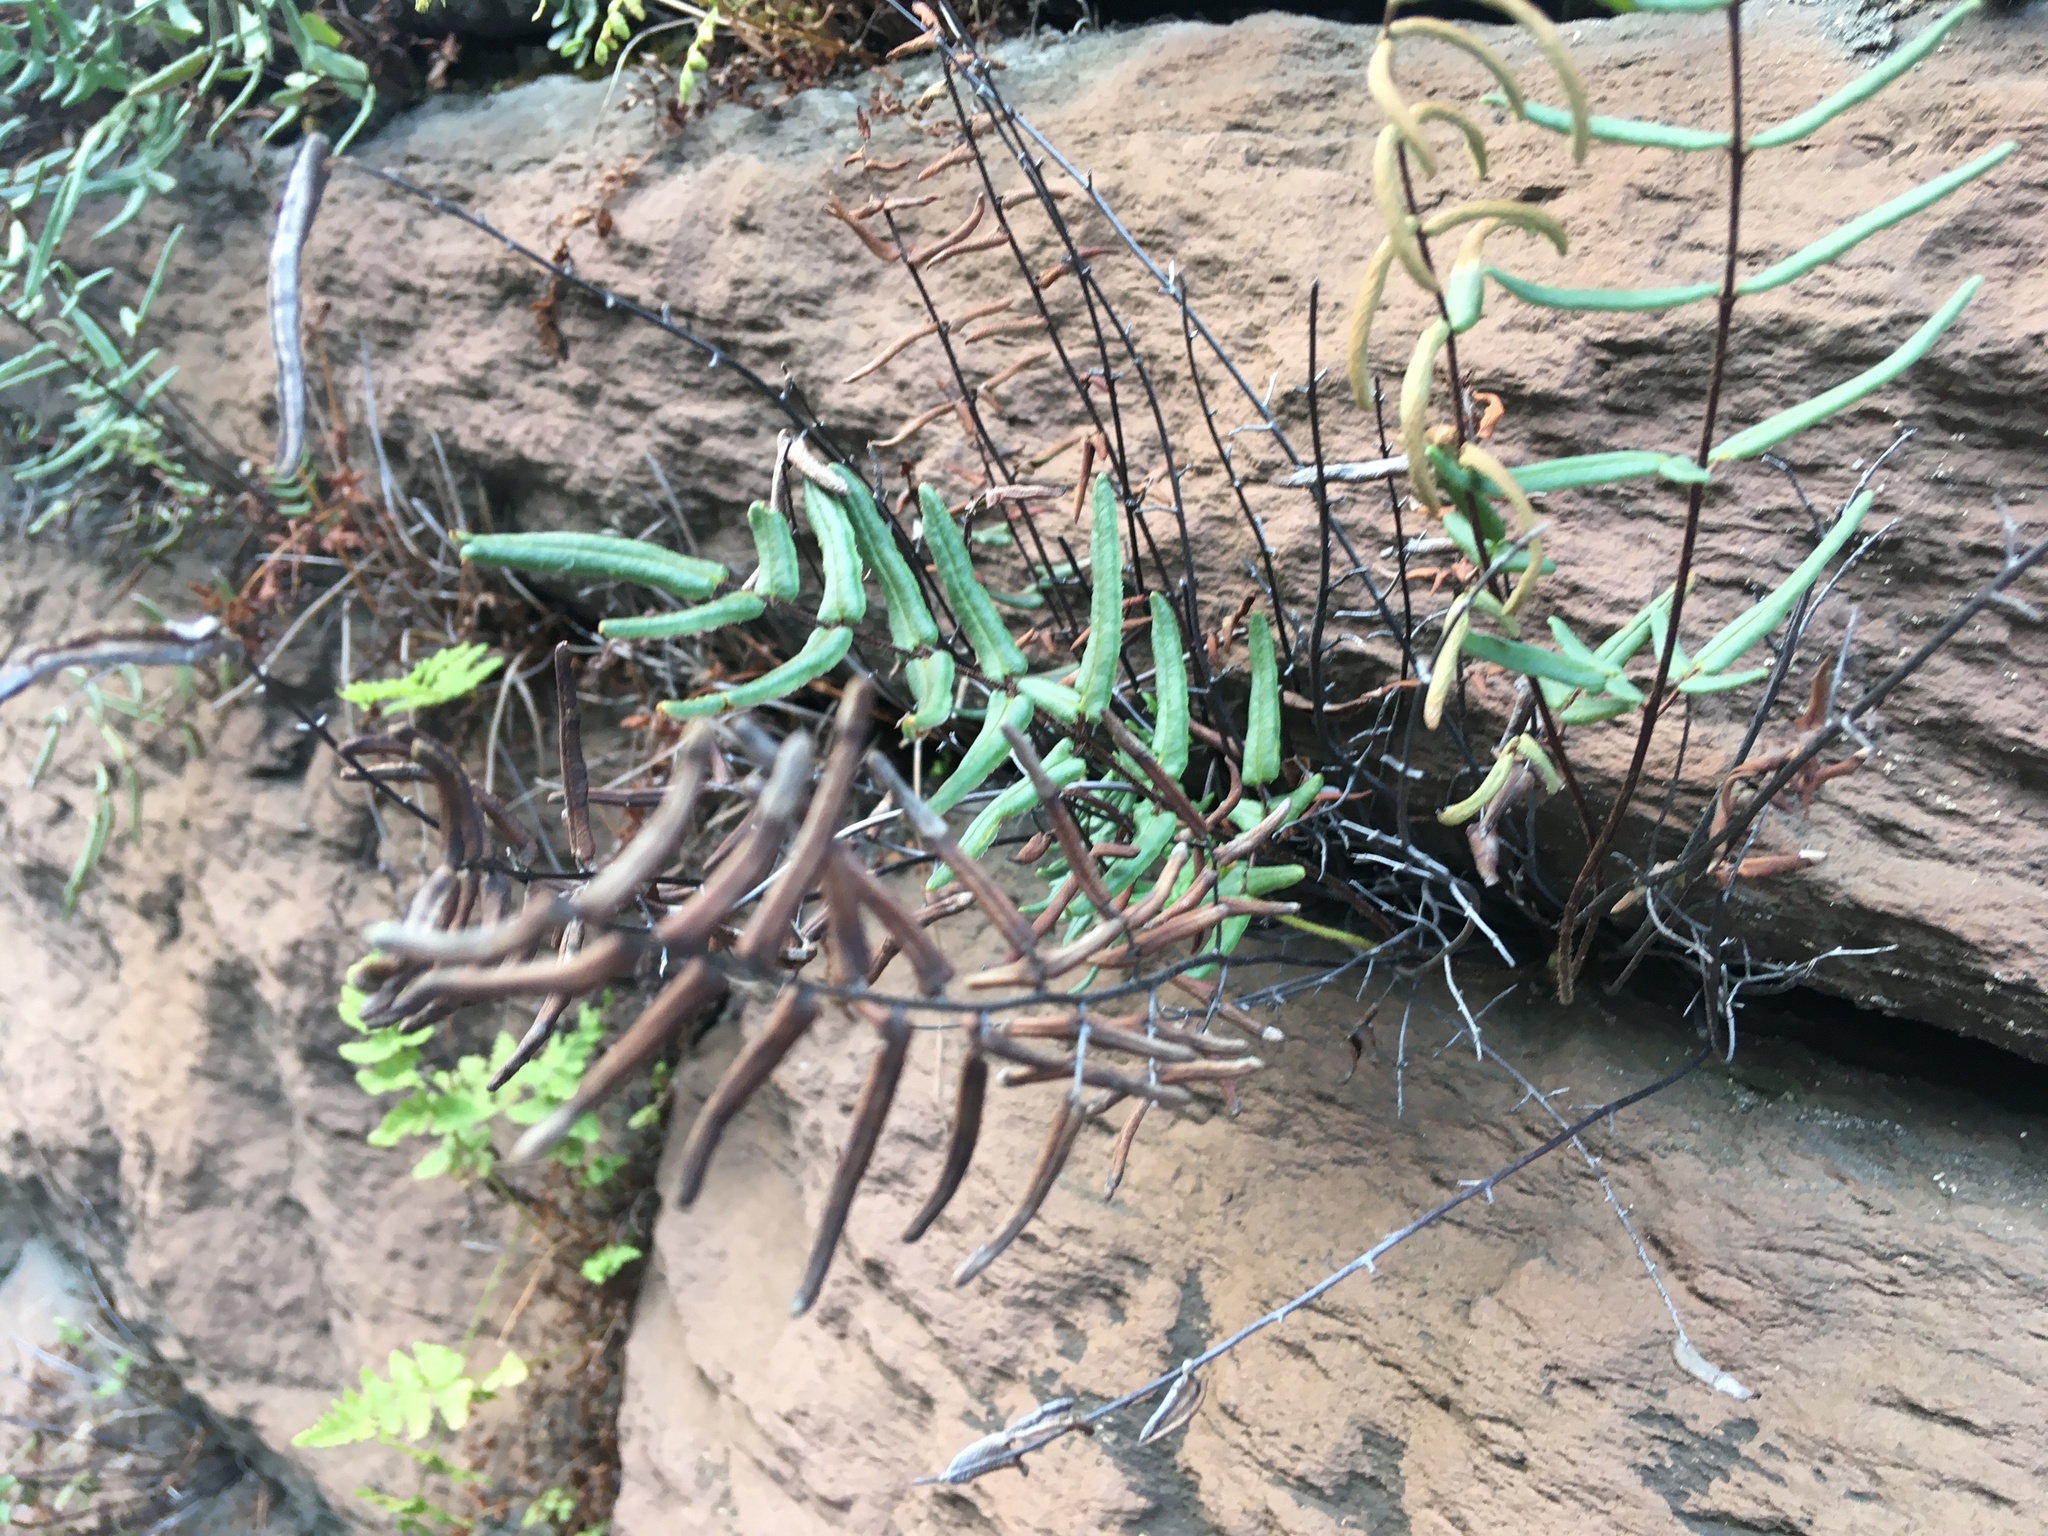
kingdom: Plantae
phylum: Tracheophyta
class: Polypodiopsida
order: Polypodiales
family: Pteridaceae
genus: Pellaea
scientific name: Pellaea atropurpurea
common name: Hairy cliffbrake
